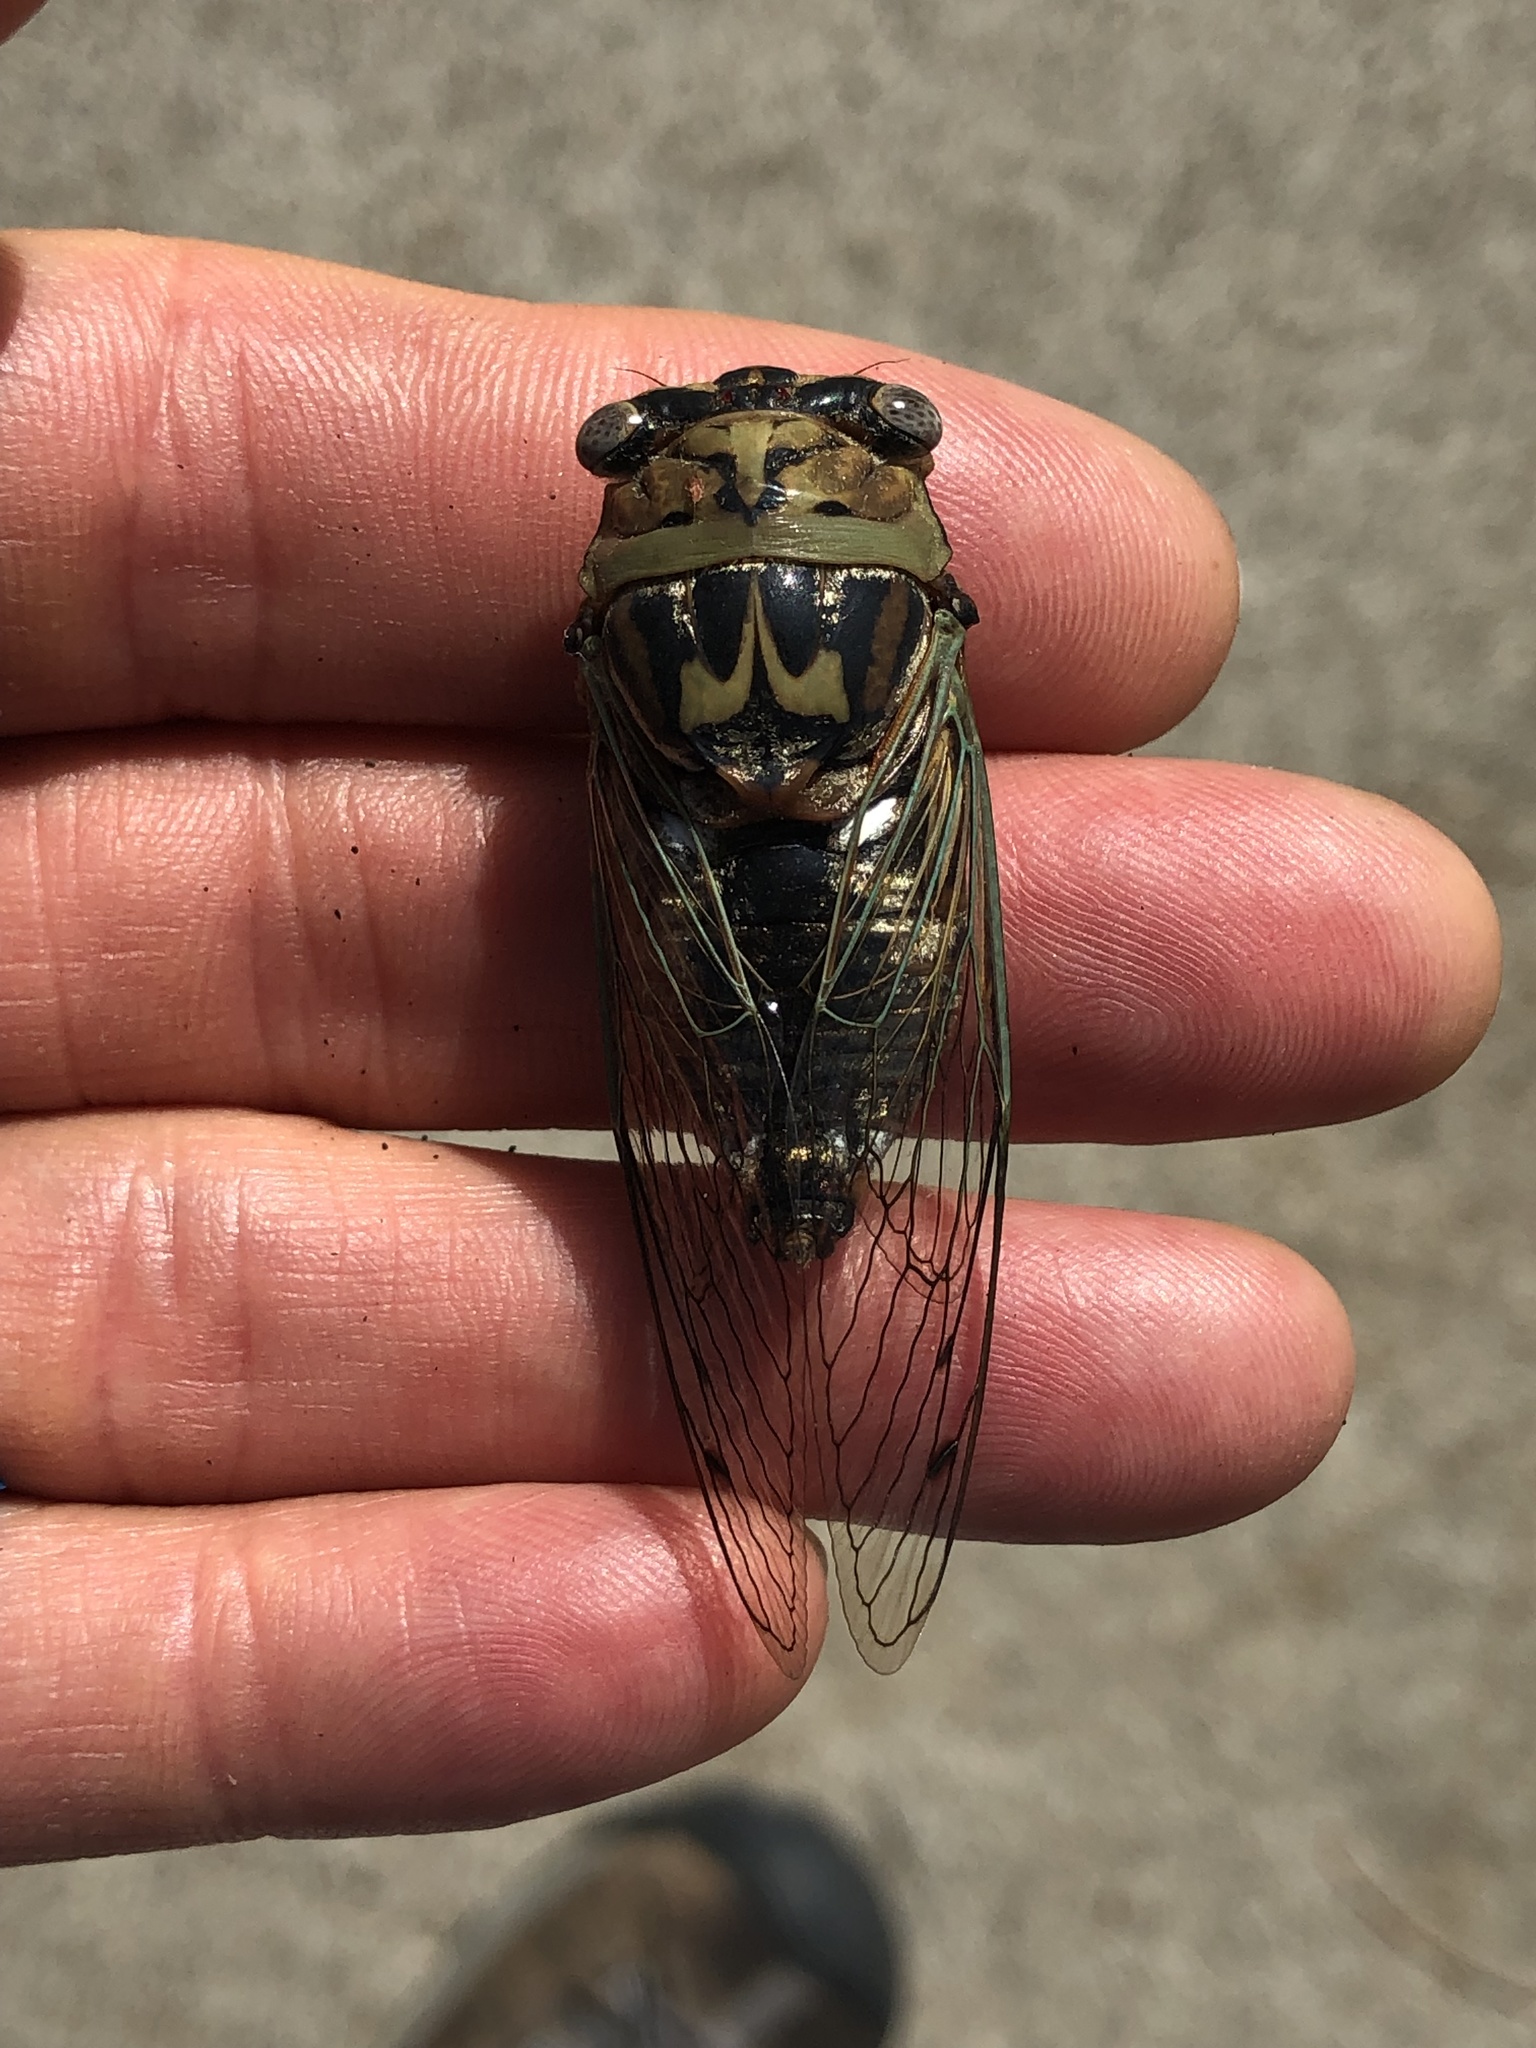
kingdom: Animalia
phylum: Arthropoda
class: Insecta
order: Hemiptera
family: Cicadidae
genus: Megatibicen
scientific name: Megatibicen resh
